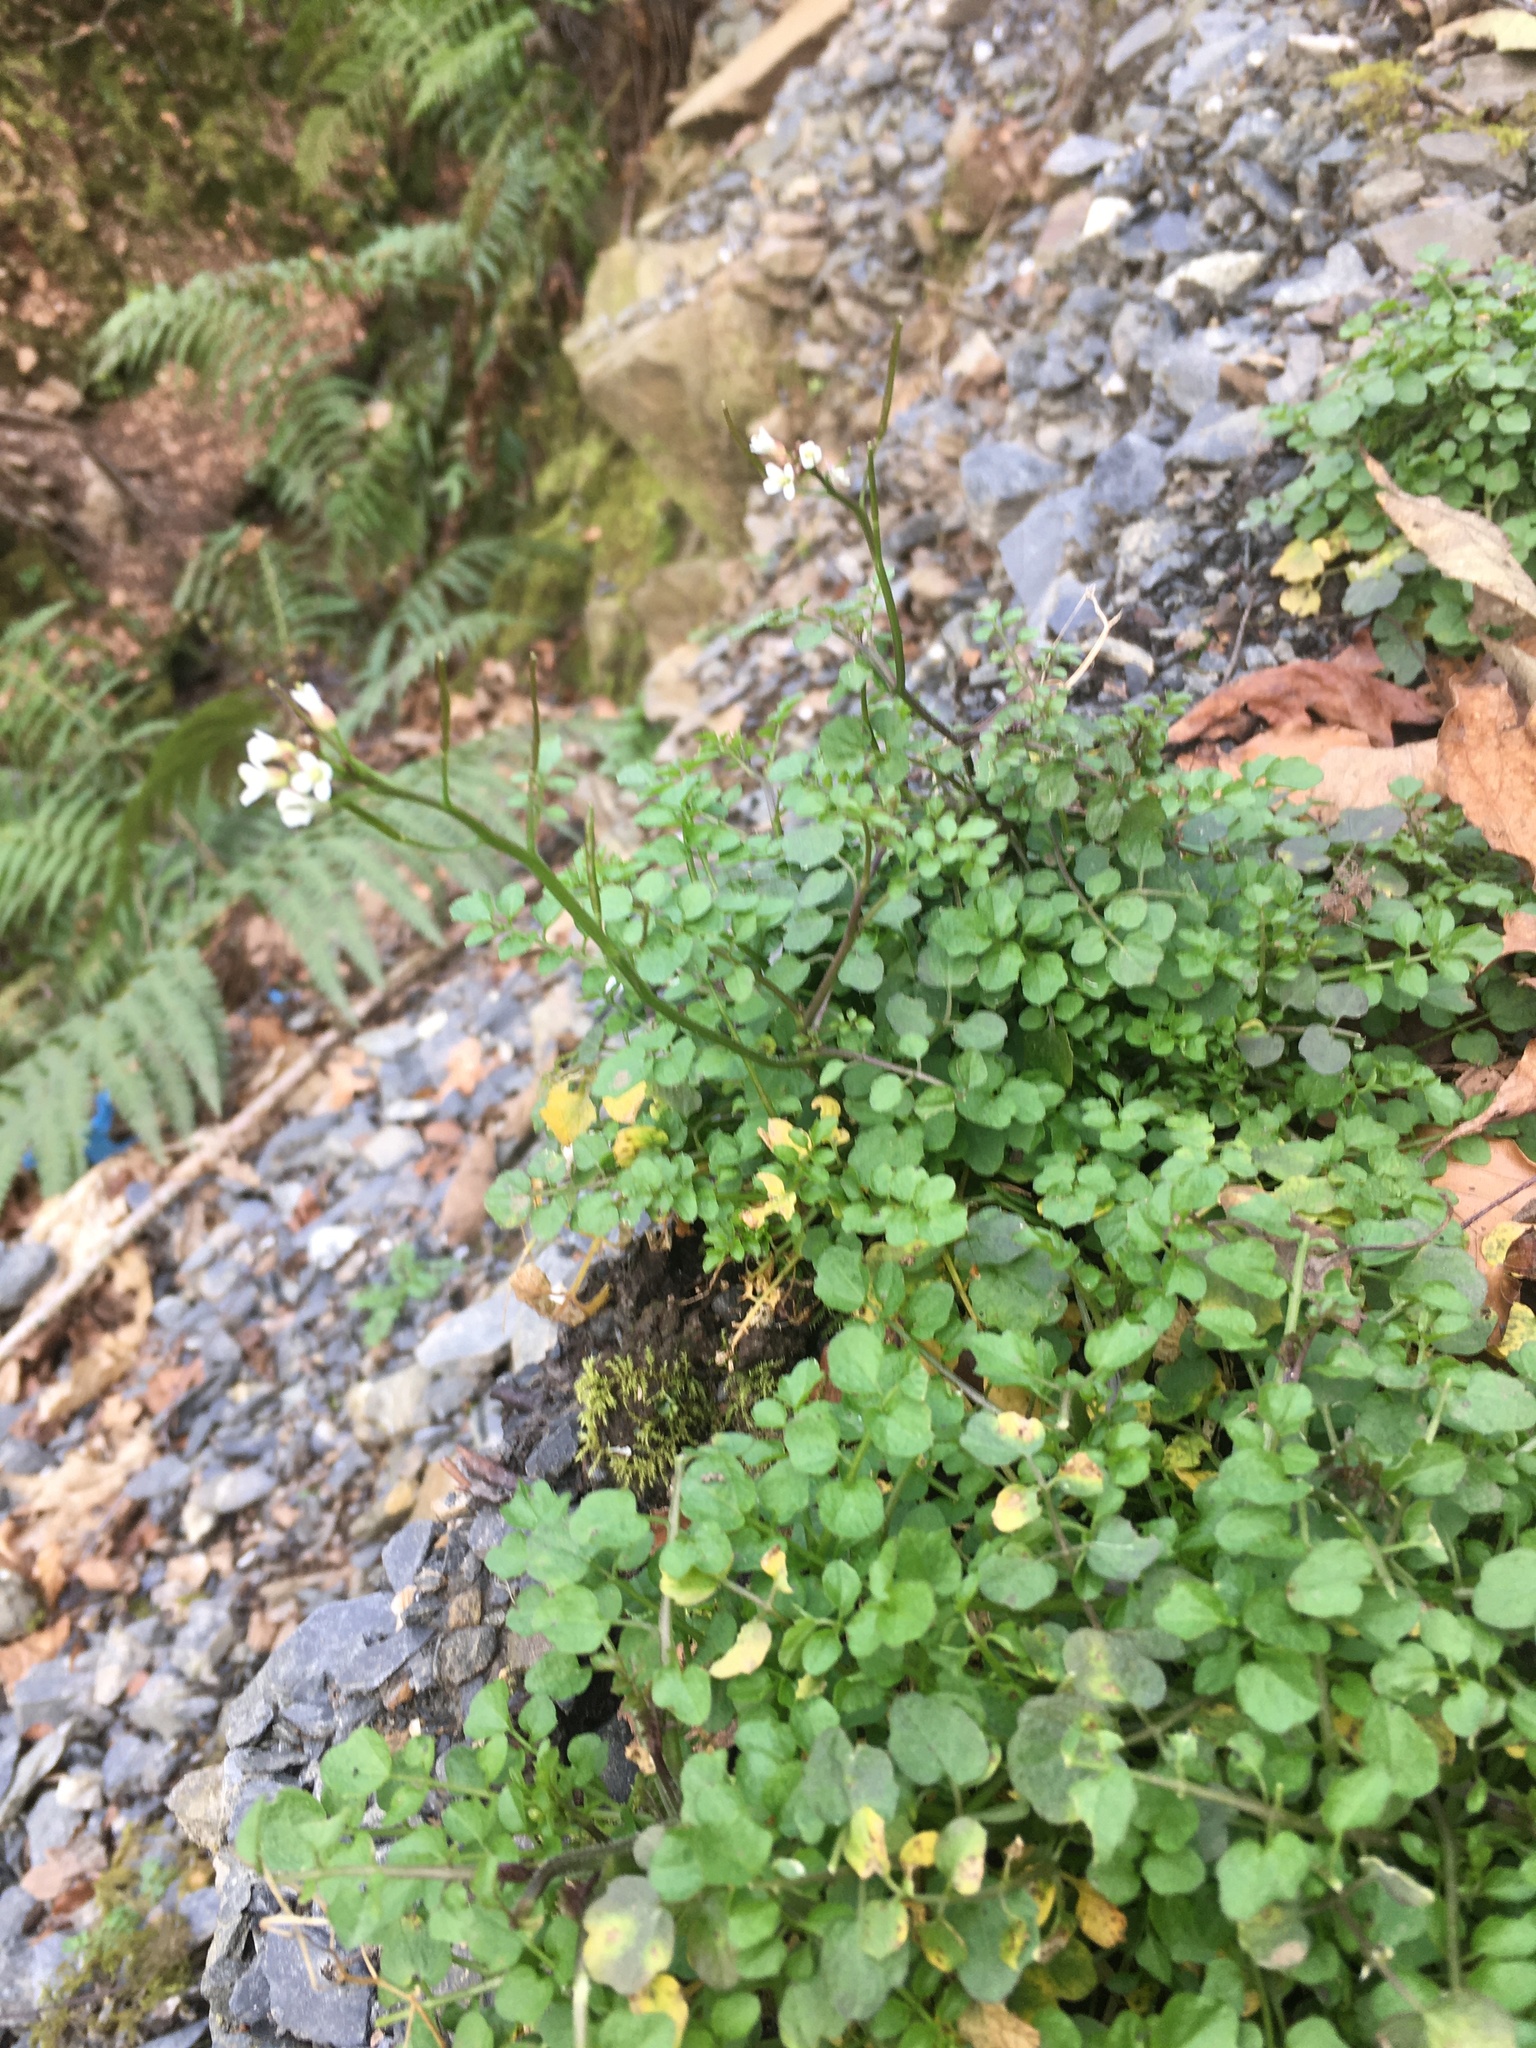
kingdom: Plantae
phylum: Tracheophyta
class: Magnoliopsida
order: Brassicales
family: Brassicaceae
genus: Cardamine
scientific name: Cardamine flexuosa
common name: Woodland bittercress
